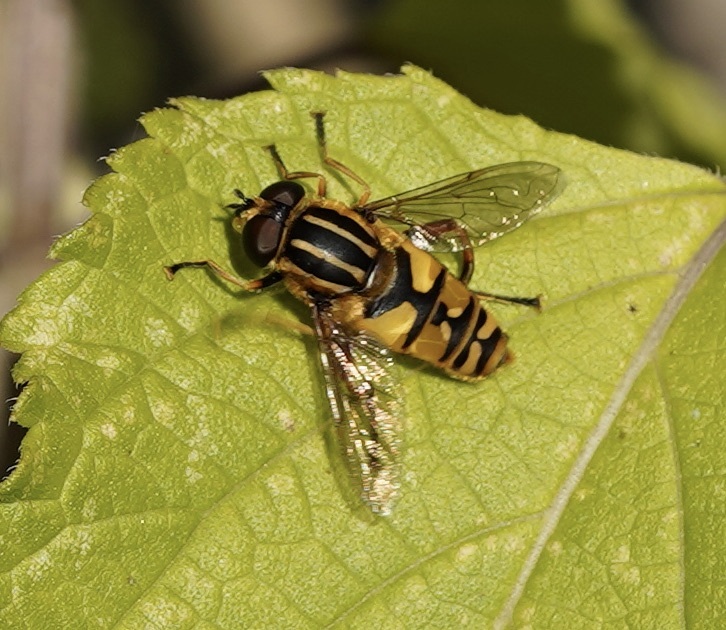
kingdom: Animalia
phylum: Arthropoda
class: Insecta
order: Diptera
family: Syrphidae
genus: Helophilus
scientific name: Helophilus pendulus
